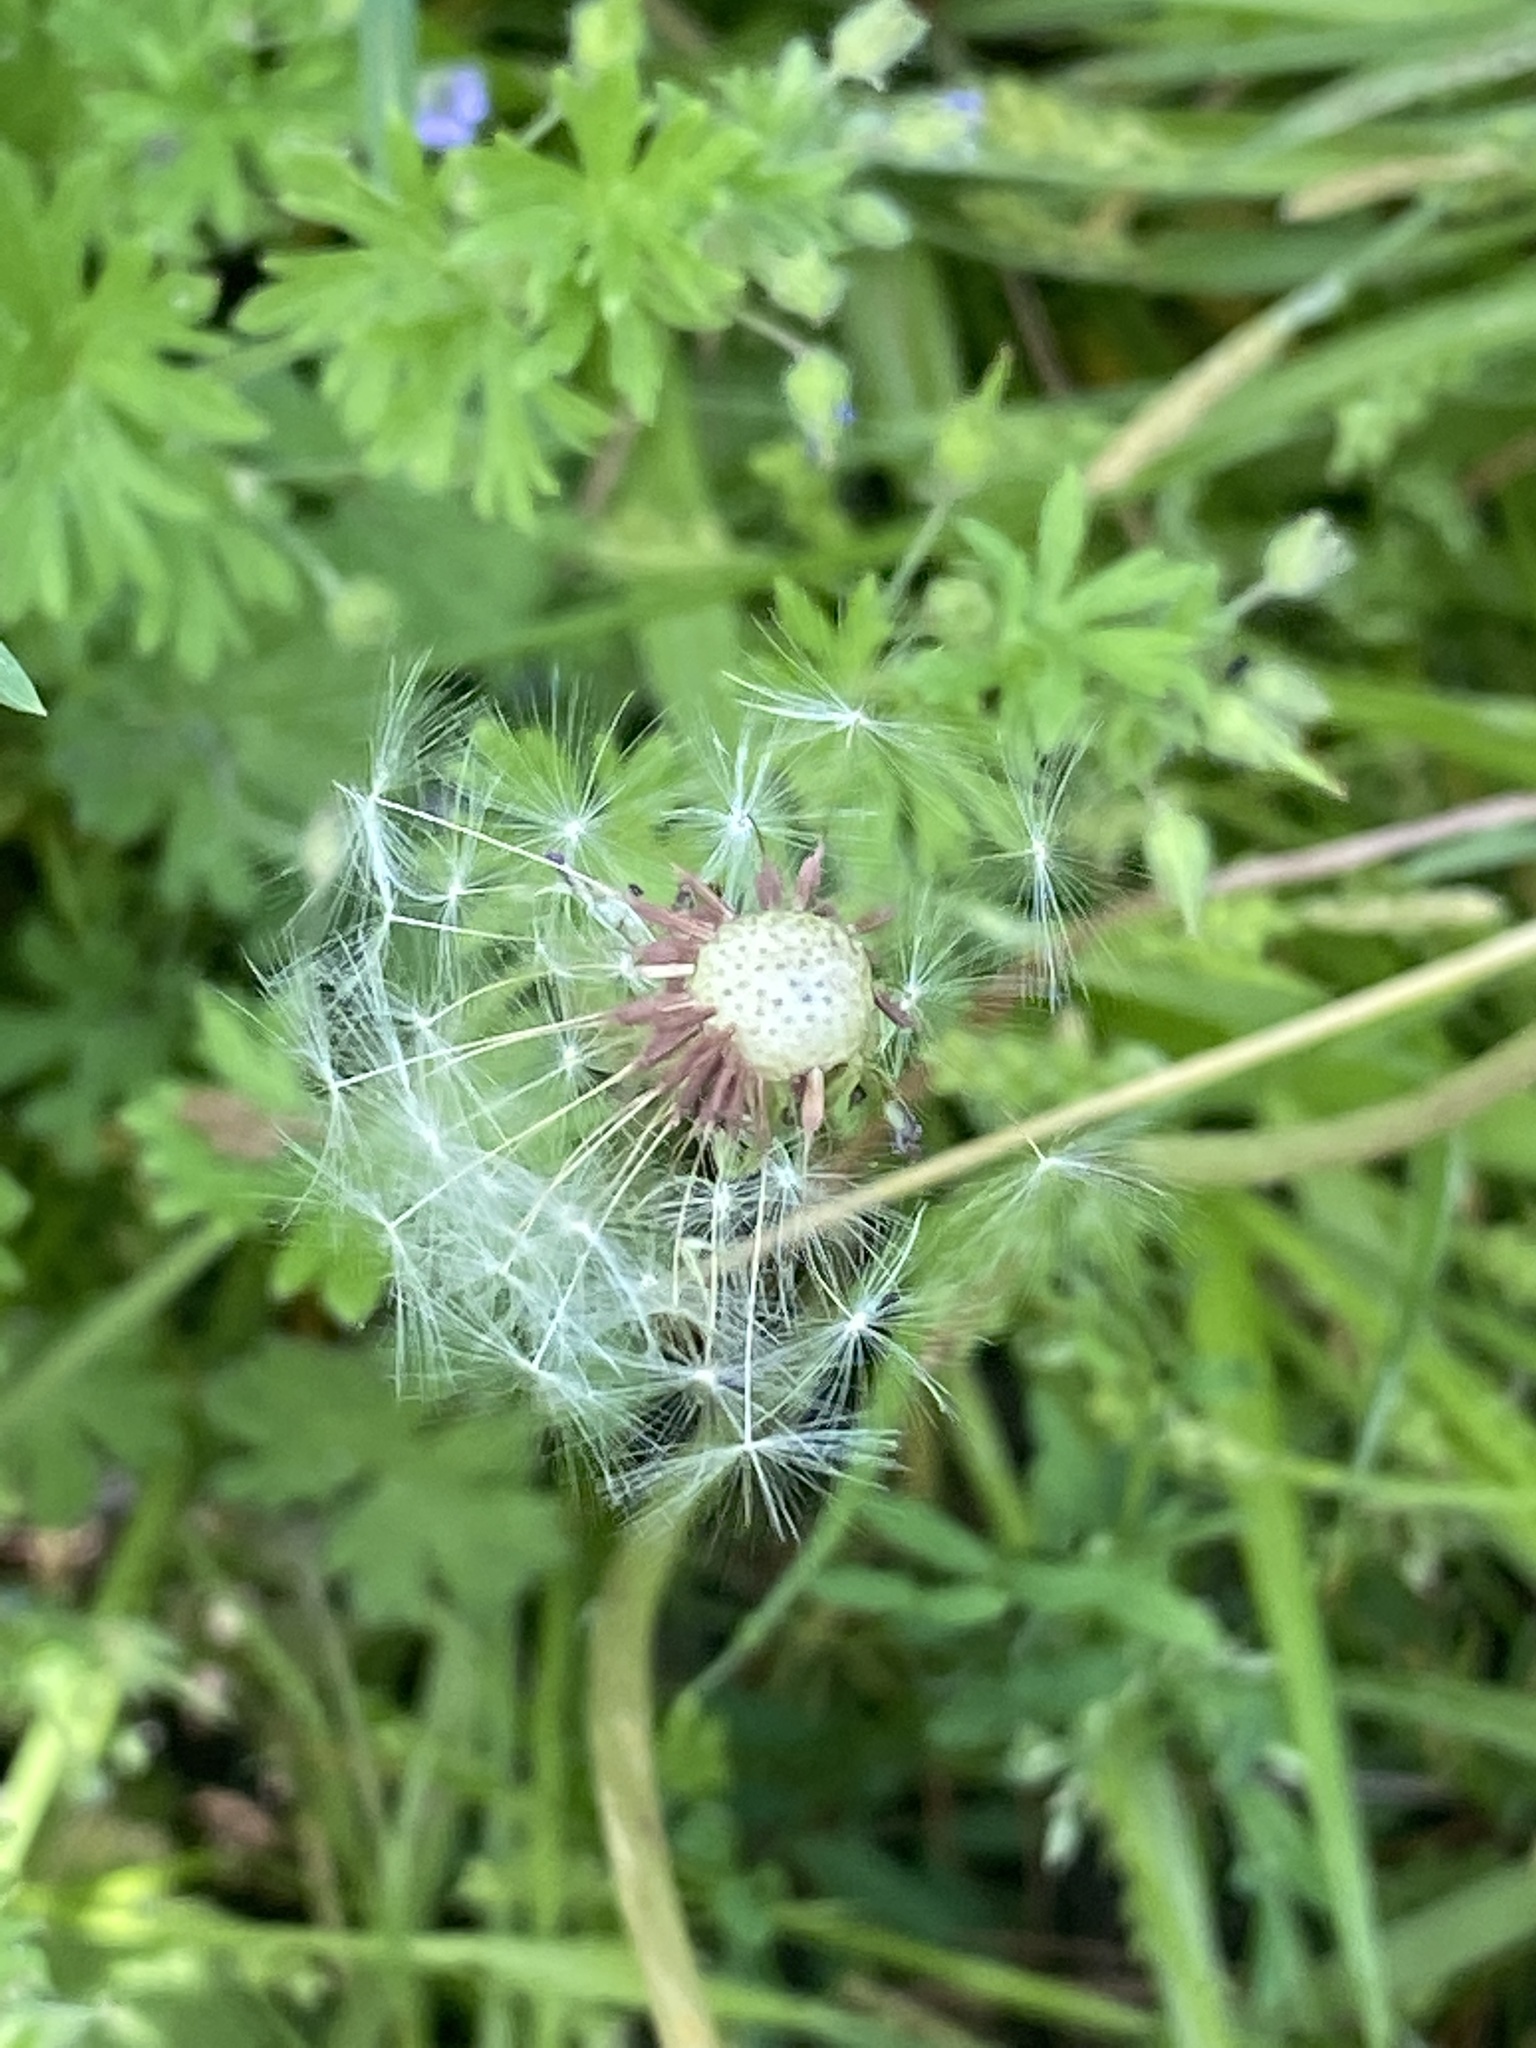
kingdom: Plantae
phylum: Tracheophyta
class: Magnoliopsida
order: Asterales
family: Asteraceae
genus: Taraxacum
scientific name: Taraxacum officinale
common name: Common dandelion
